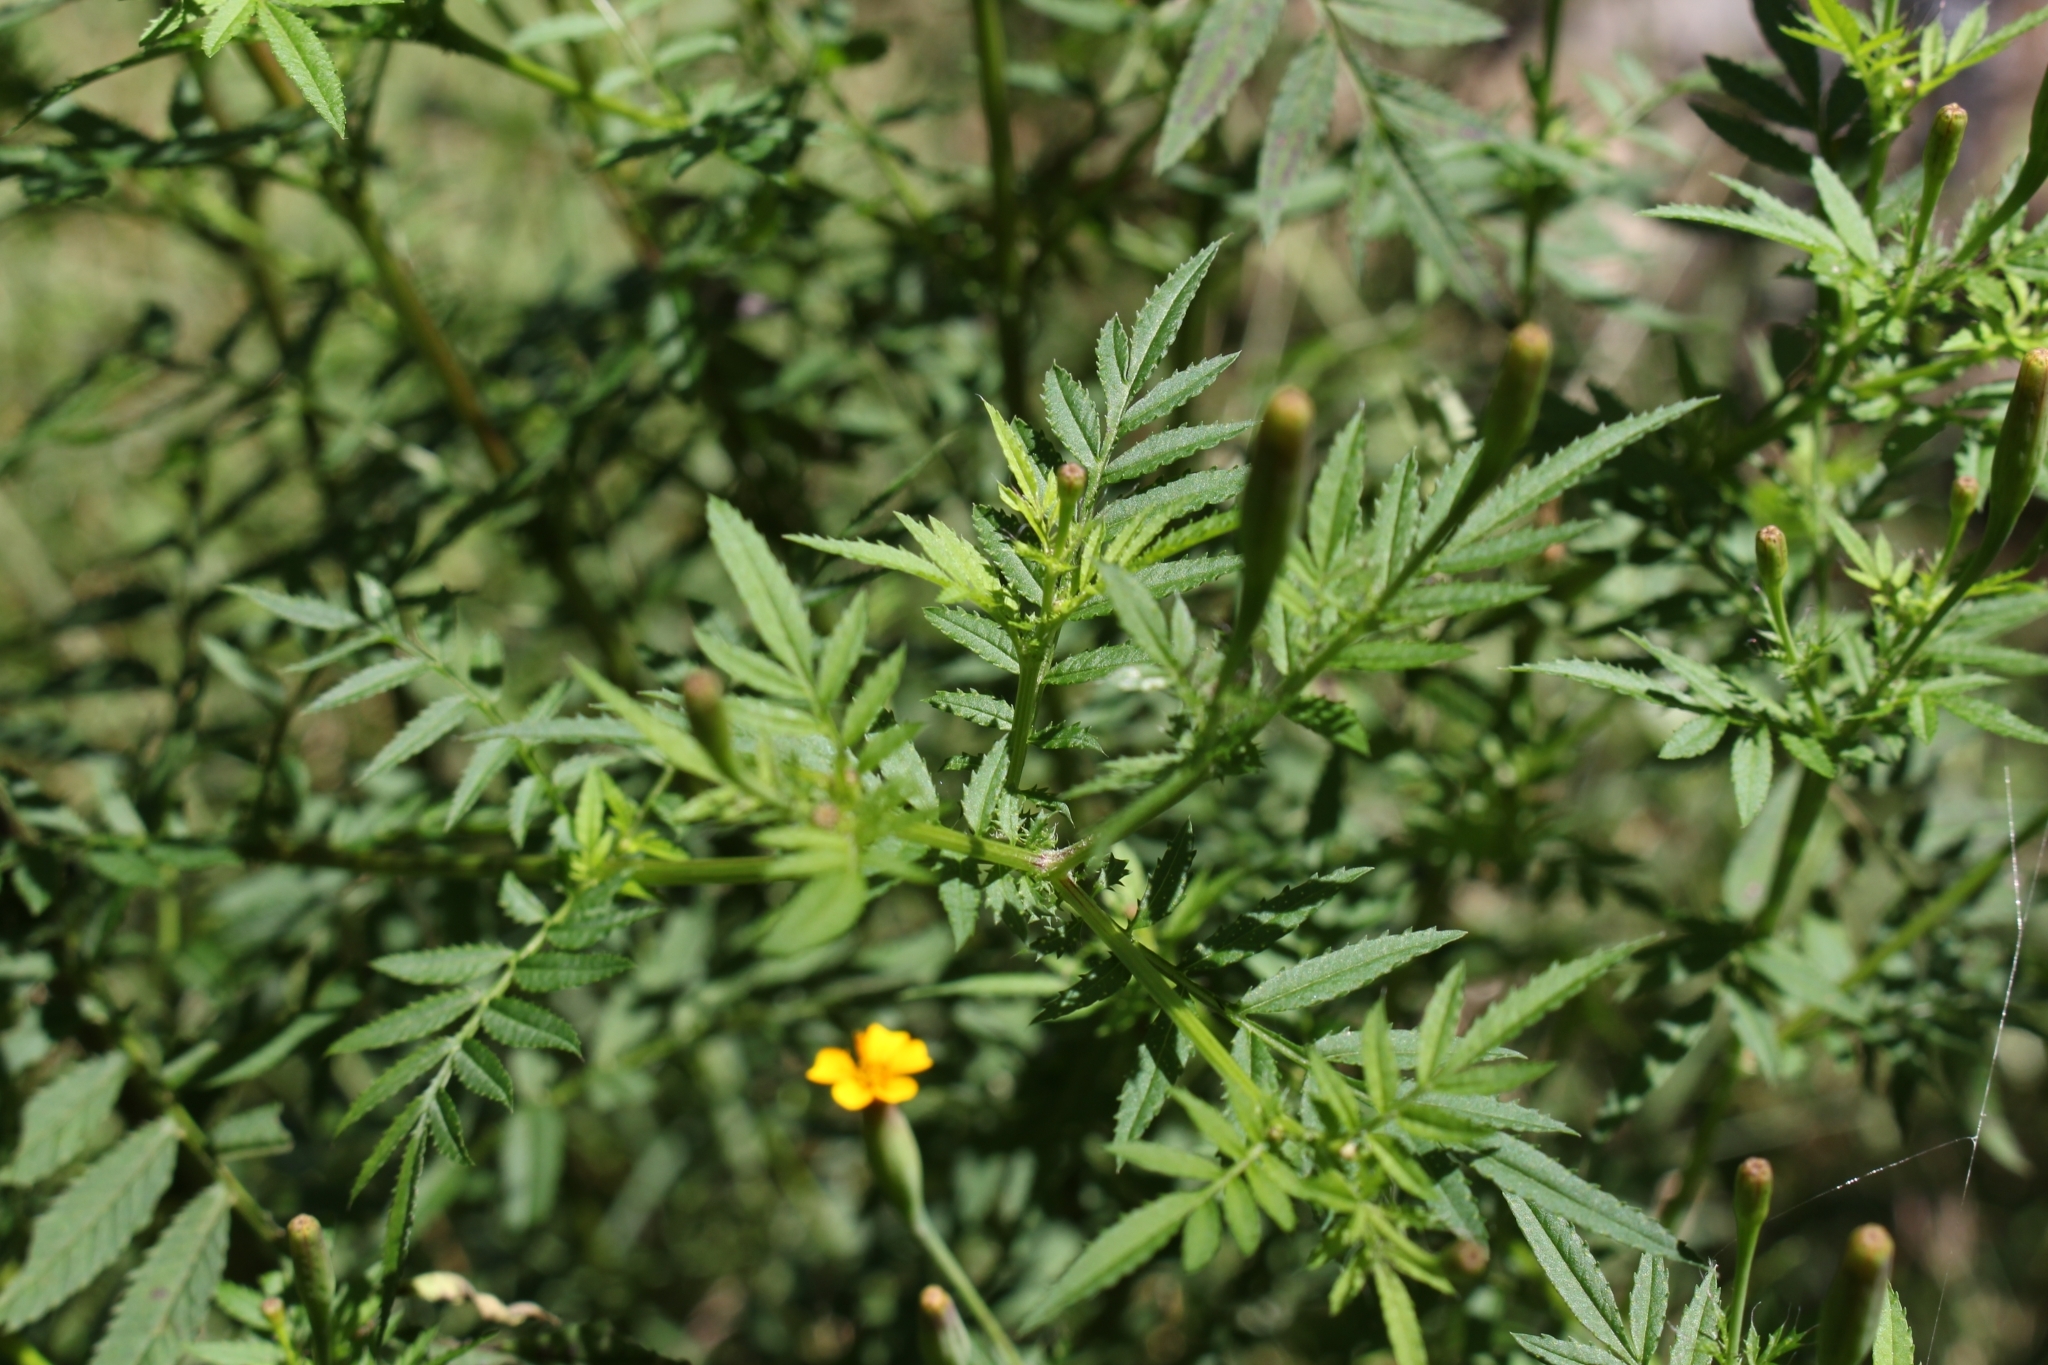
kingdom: Plantae
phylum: Tracheophyta
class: Magnoliopsida
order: Asterales
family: Asteraceae
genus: Tagetes
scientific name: Tagetes subulata
